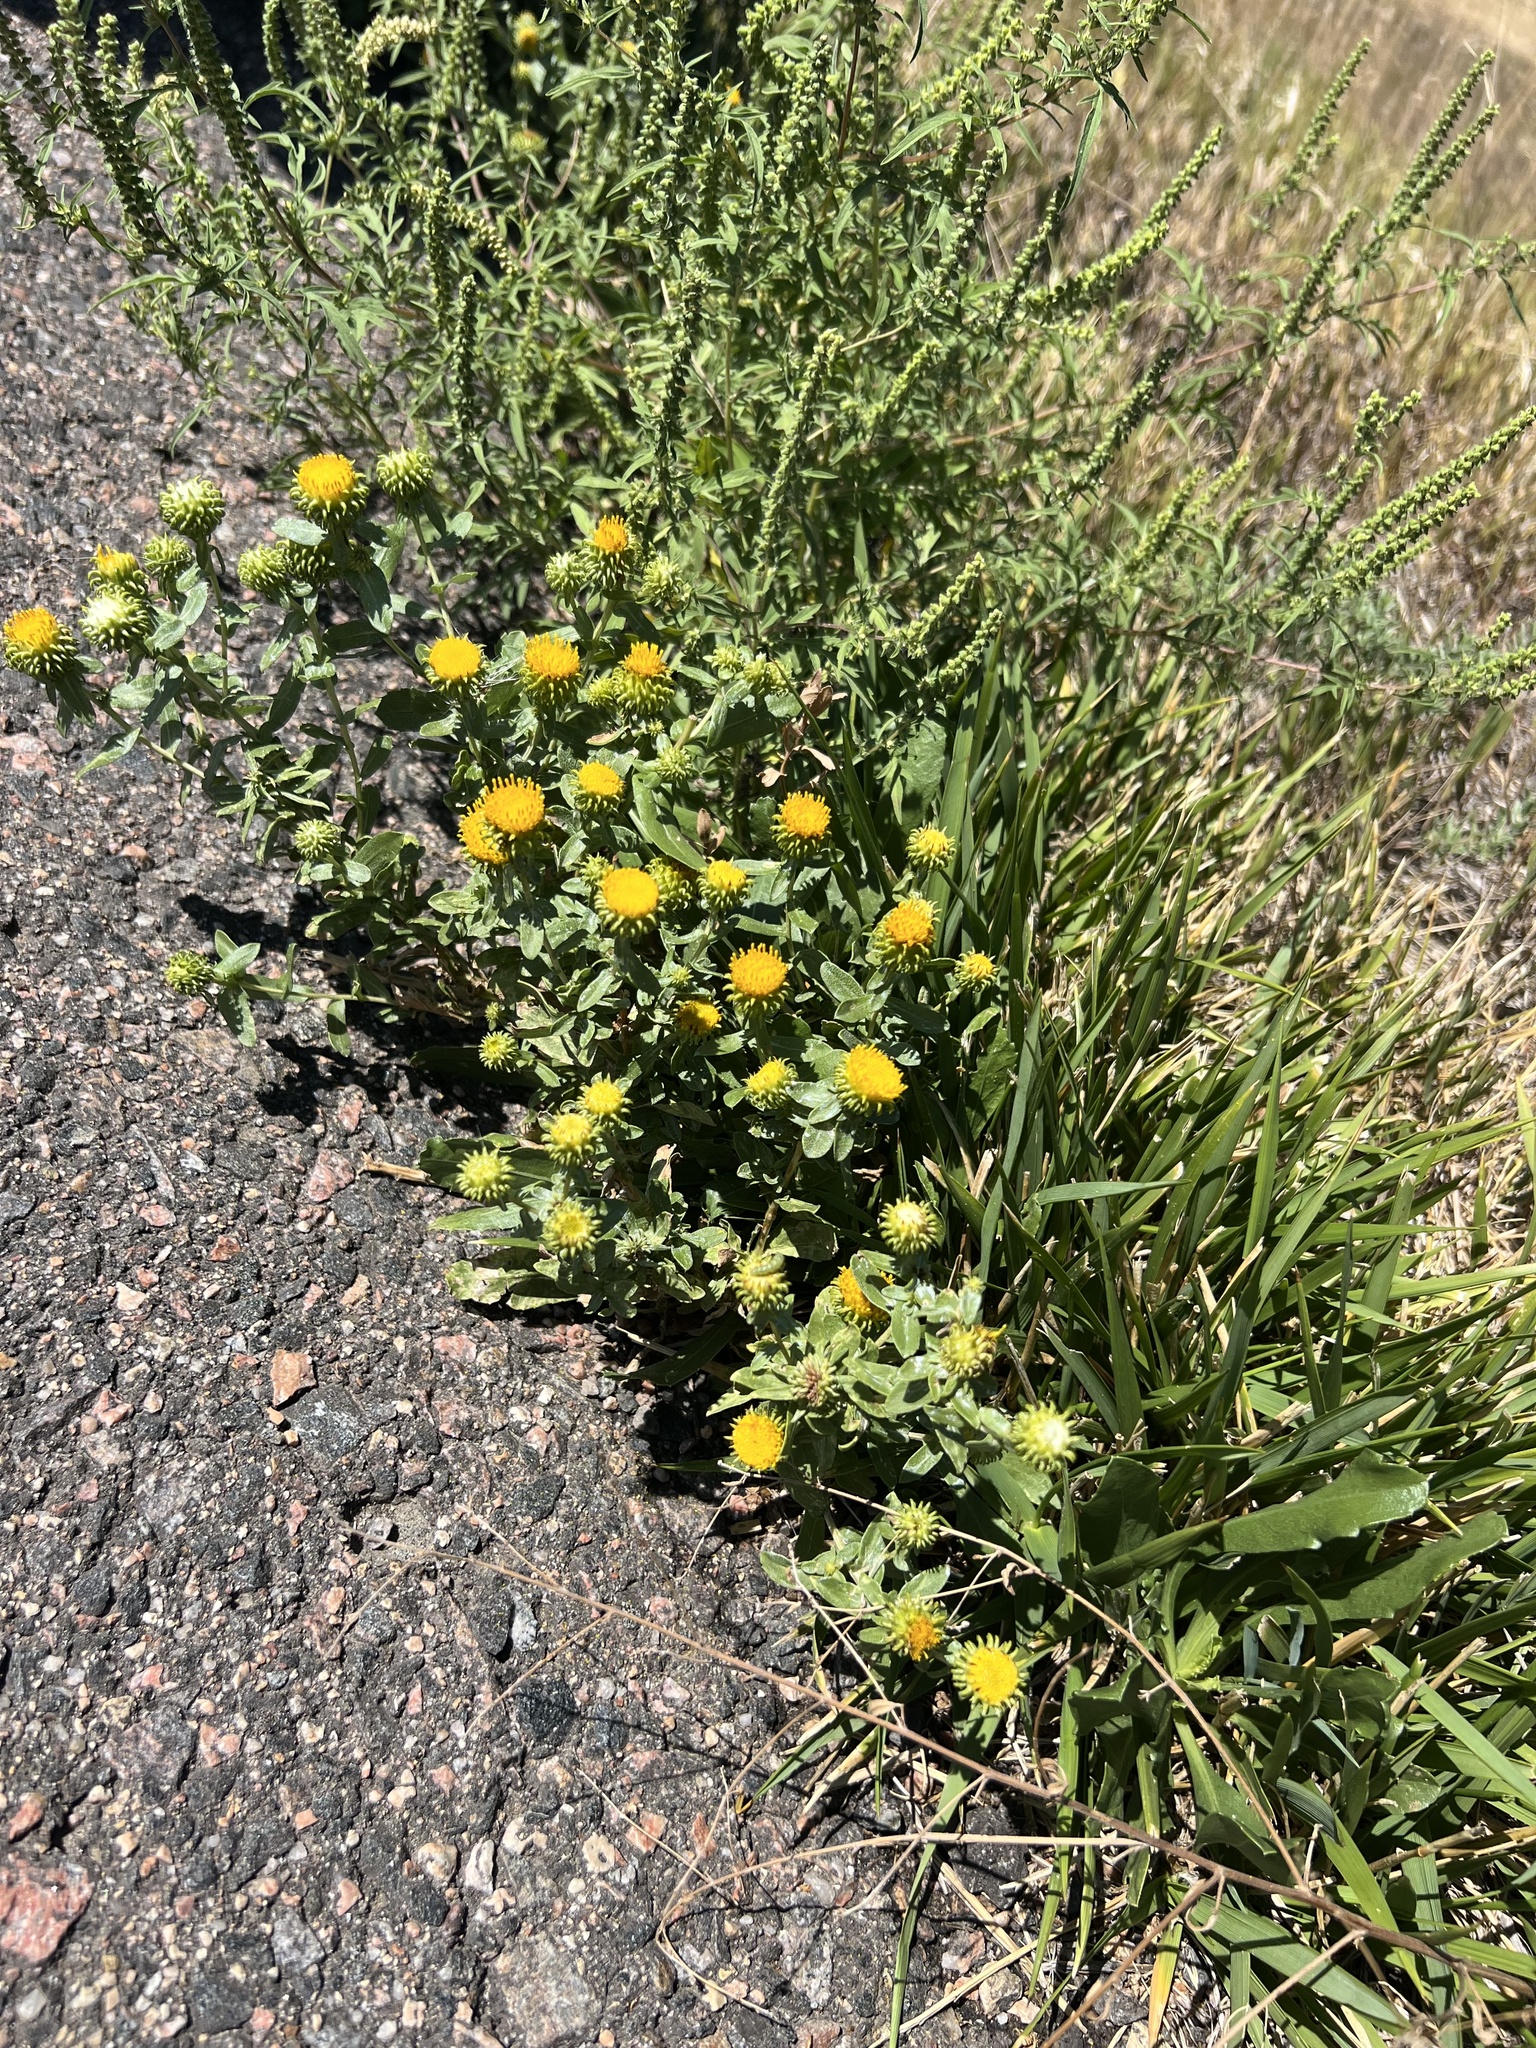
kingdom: Plantae
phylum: Tracheophyta
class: Magnoliopsida
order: Asterales
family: Asteraceae
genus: Grindelia
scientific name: Grindelia hirsutula
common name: Hairy gumweed
